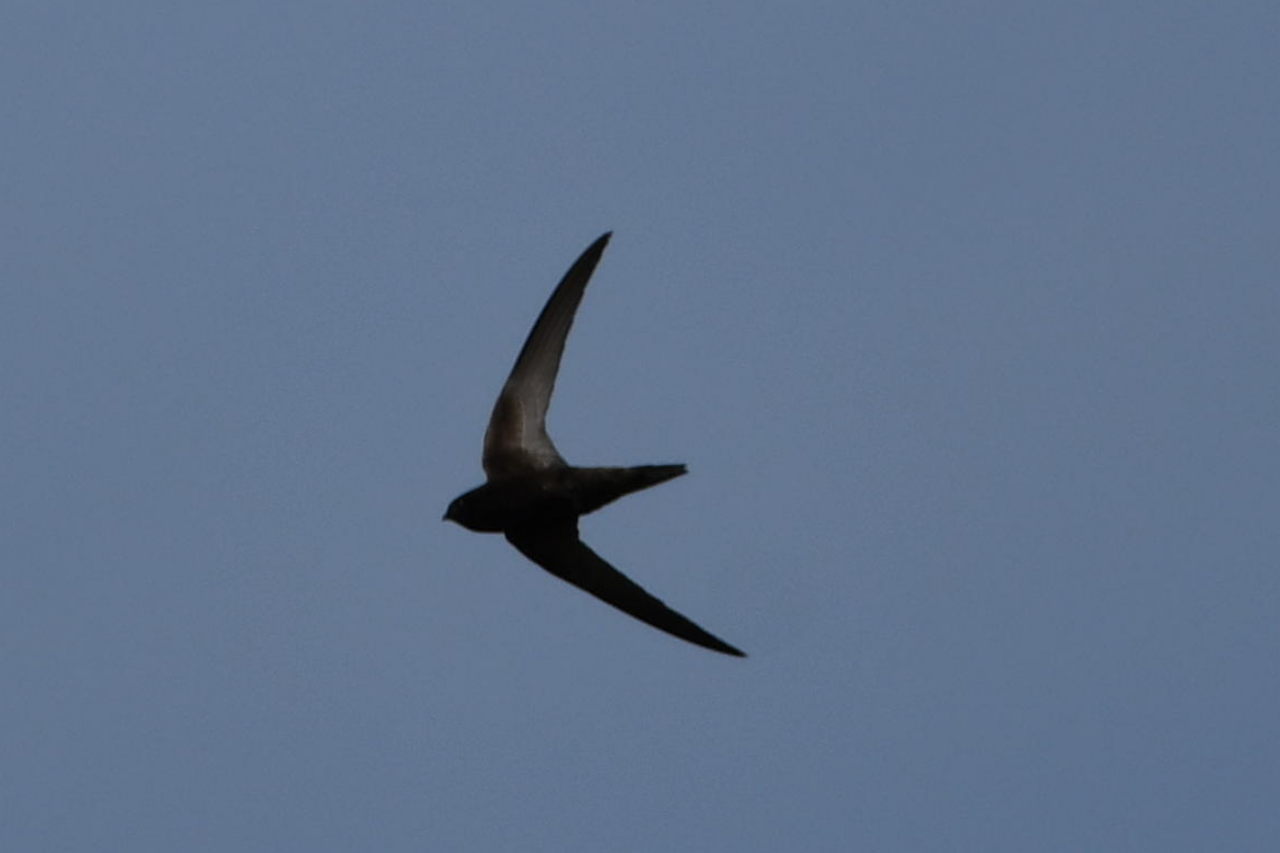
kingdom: Animalia
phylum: Chordata
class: Aves
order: Apodiformes
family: Apodidae
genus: Apus
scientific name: Apus apus
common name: Common swift
